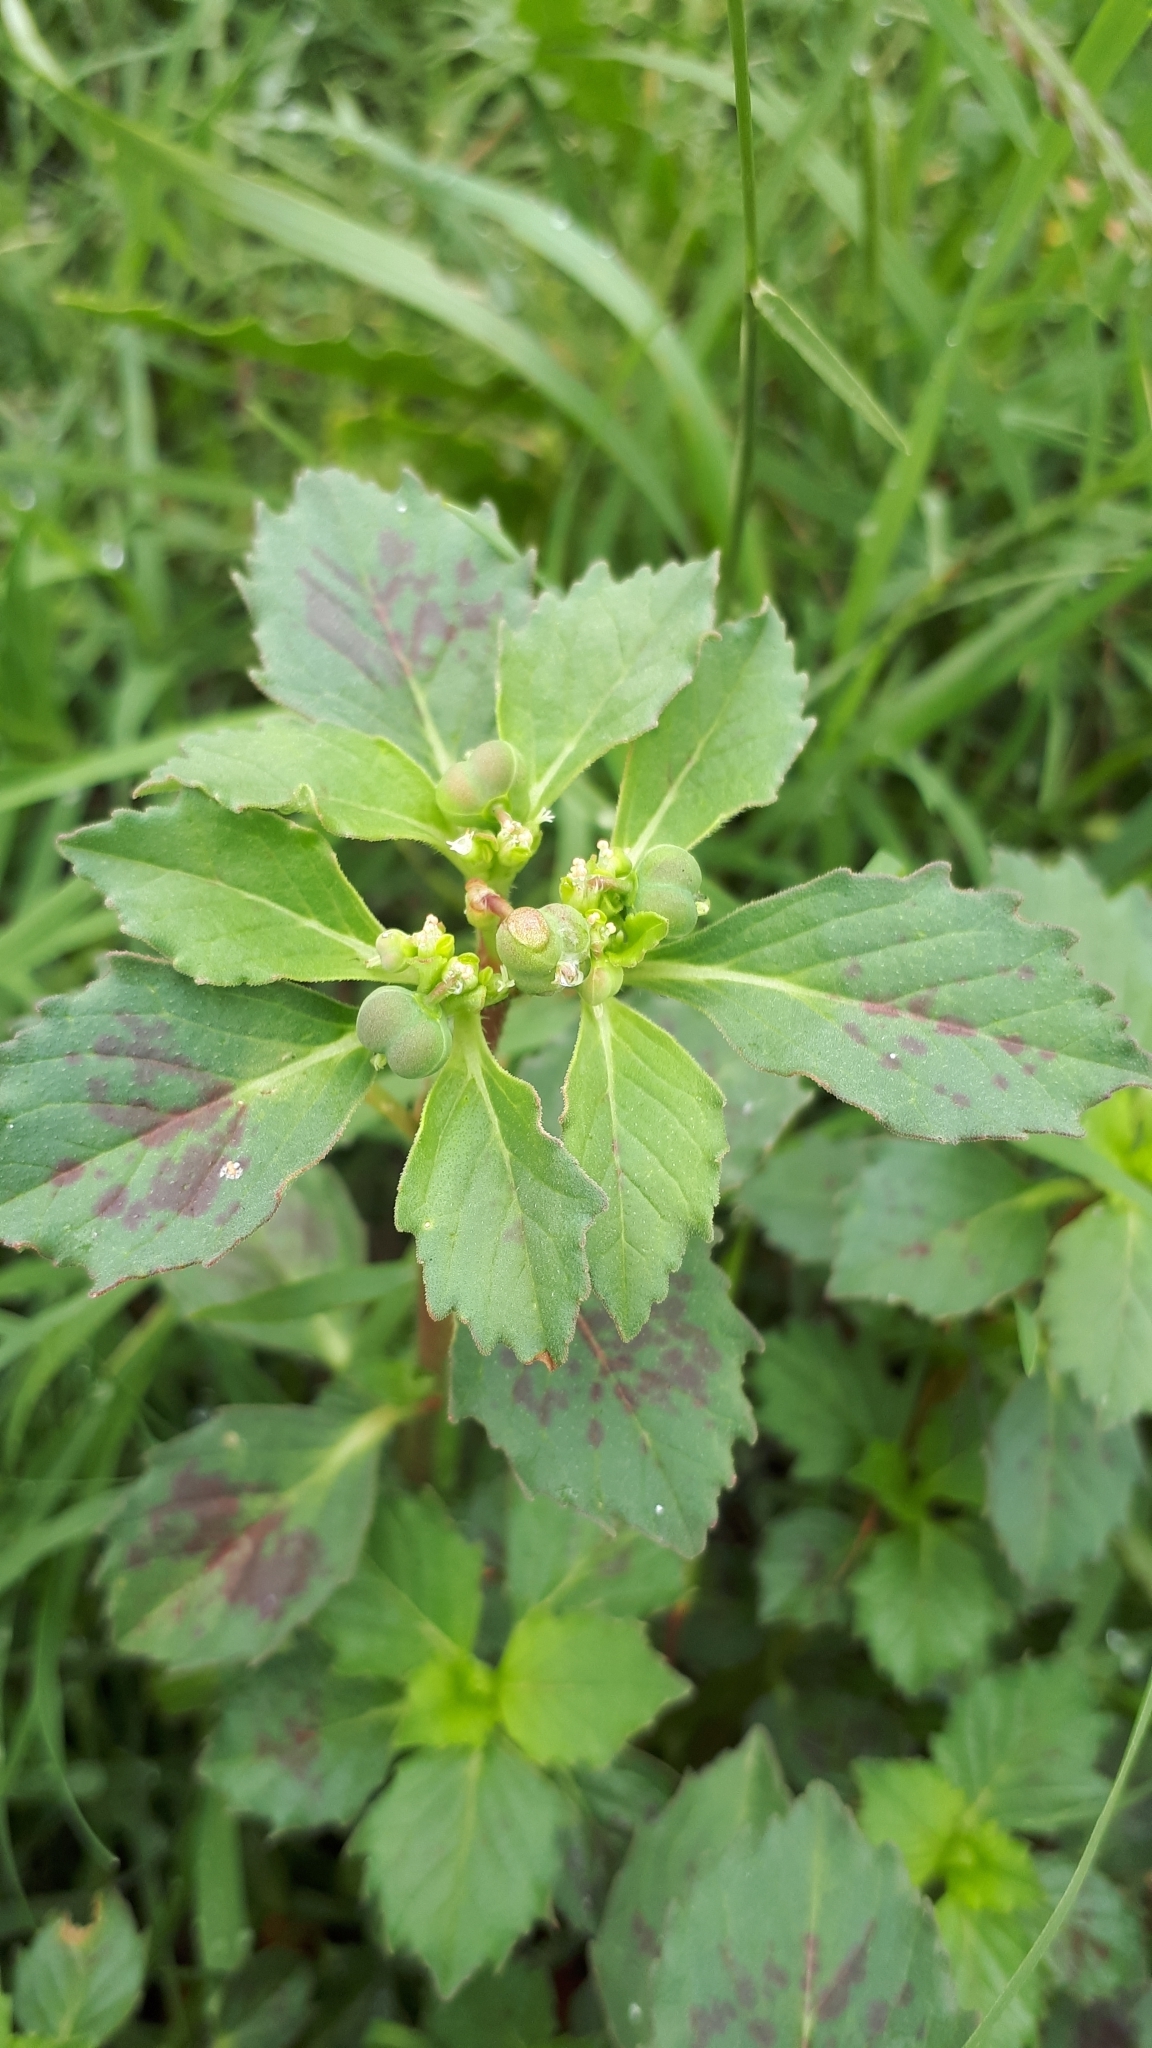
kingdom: Plantae
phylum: Tracheophyta
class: Magnoliopsida
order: Malpighiales
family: Euphorbiaceae
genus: Euphorbia
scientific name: Euphorbia davidii
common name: David's spurge
